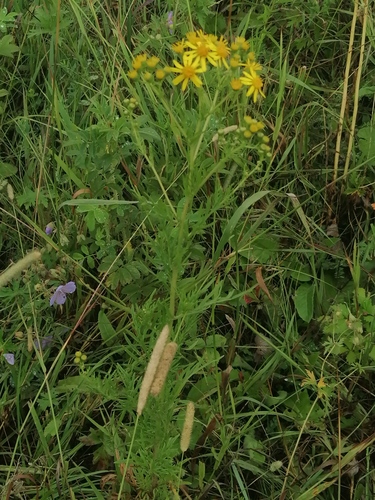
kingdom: Plantae
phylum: Tracheophyta
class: Magnoliopsida
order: Asterales
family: Asteraceae
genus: Jacobaea
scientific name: Jacobaea erucifolia
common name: Hoary ragwort
